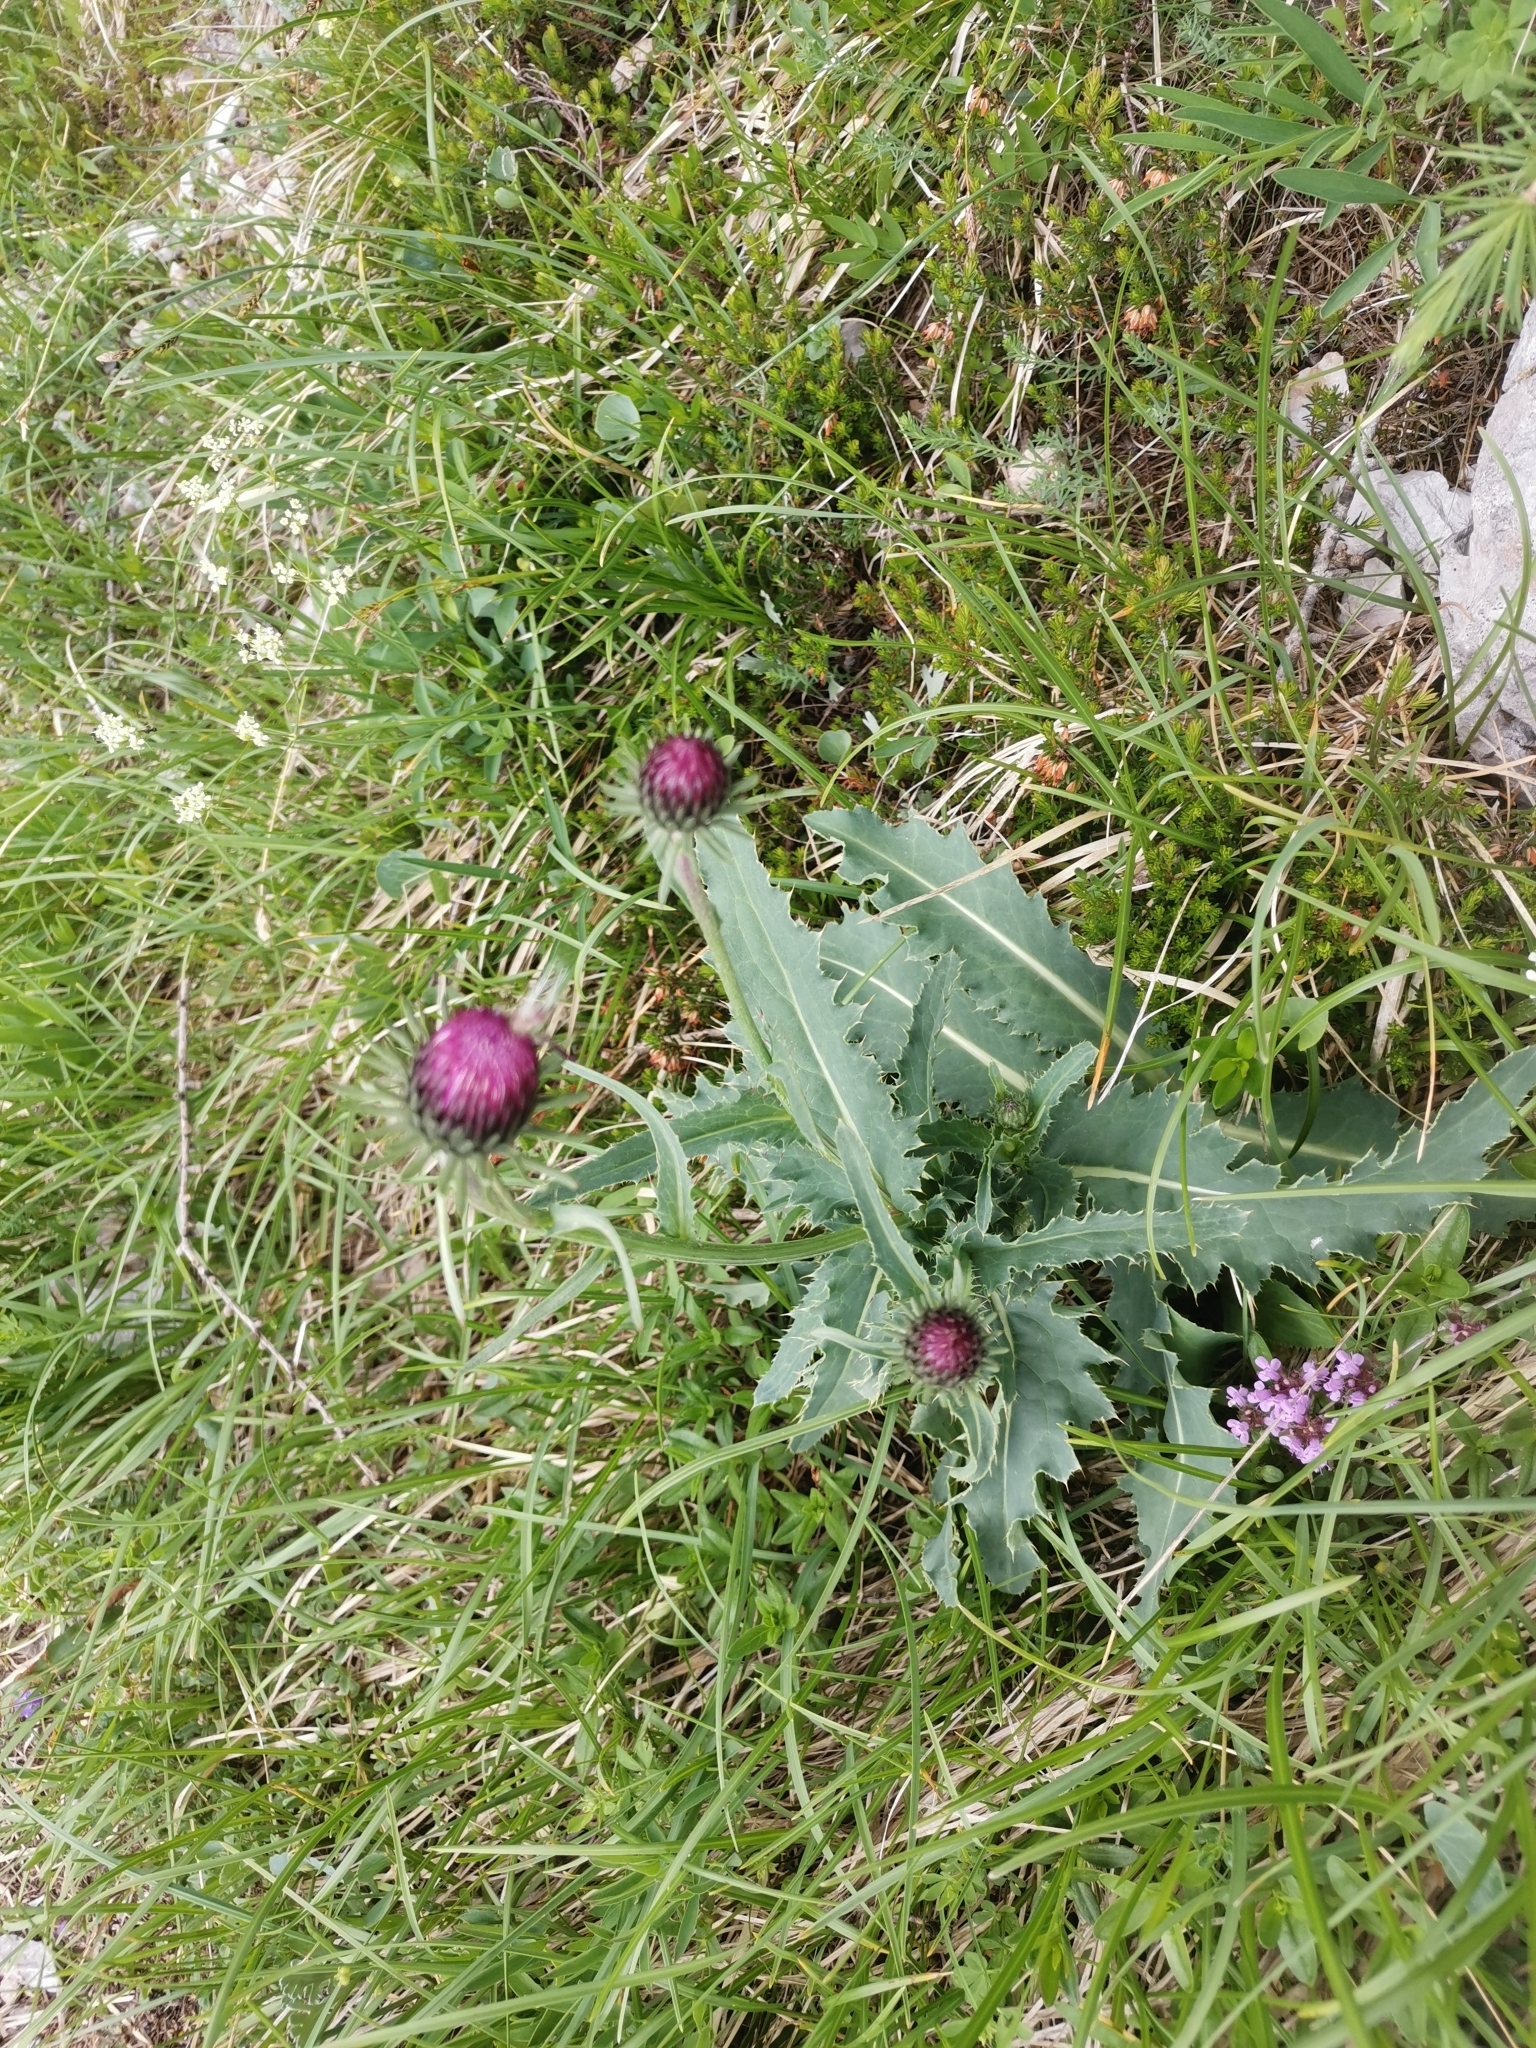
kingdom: Plantae
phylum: Tracheophyta
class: Magnoliopsida
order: Asterales
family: Asteraceae
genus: Carduus
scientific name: Carduus defloratus
